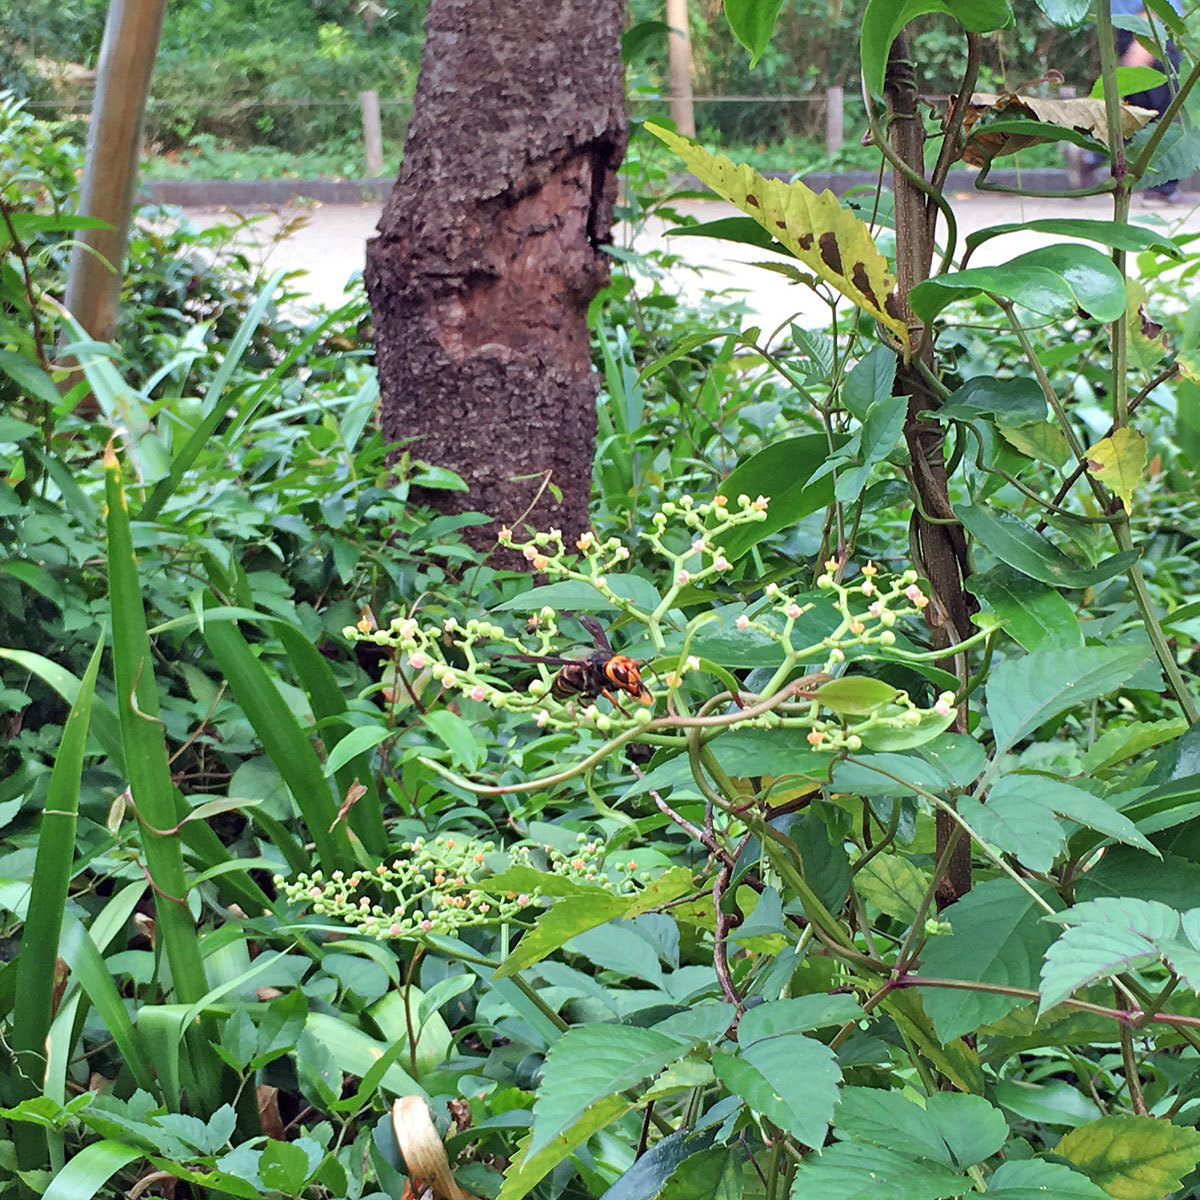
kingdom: Animalia
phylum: Arthropoda
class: Insecta
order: Hymenoptera
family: Vespidae
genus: Vespa
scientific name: Vespa analis
